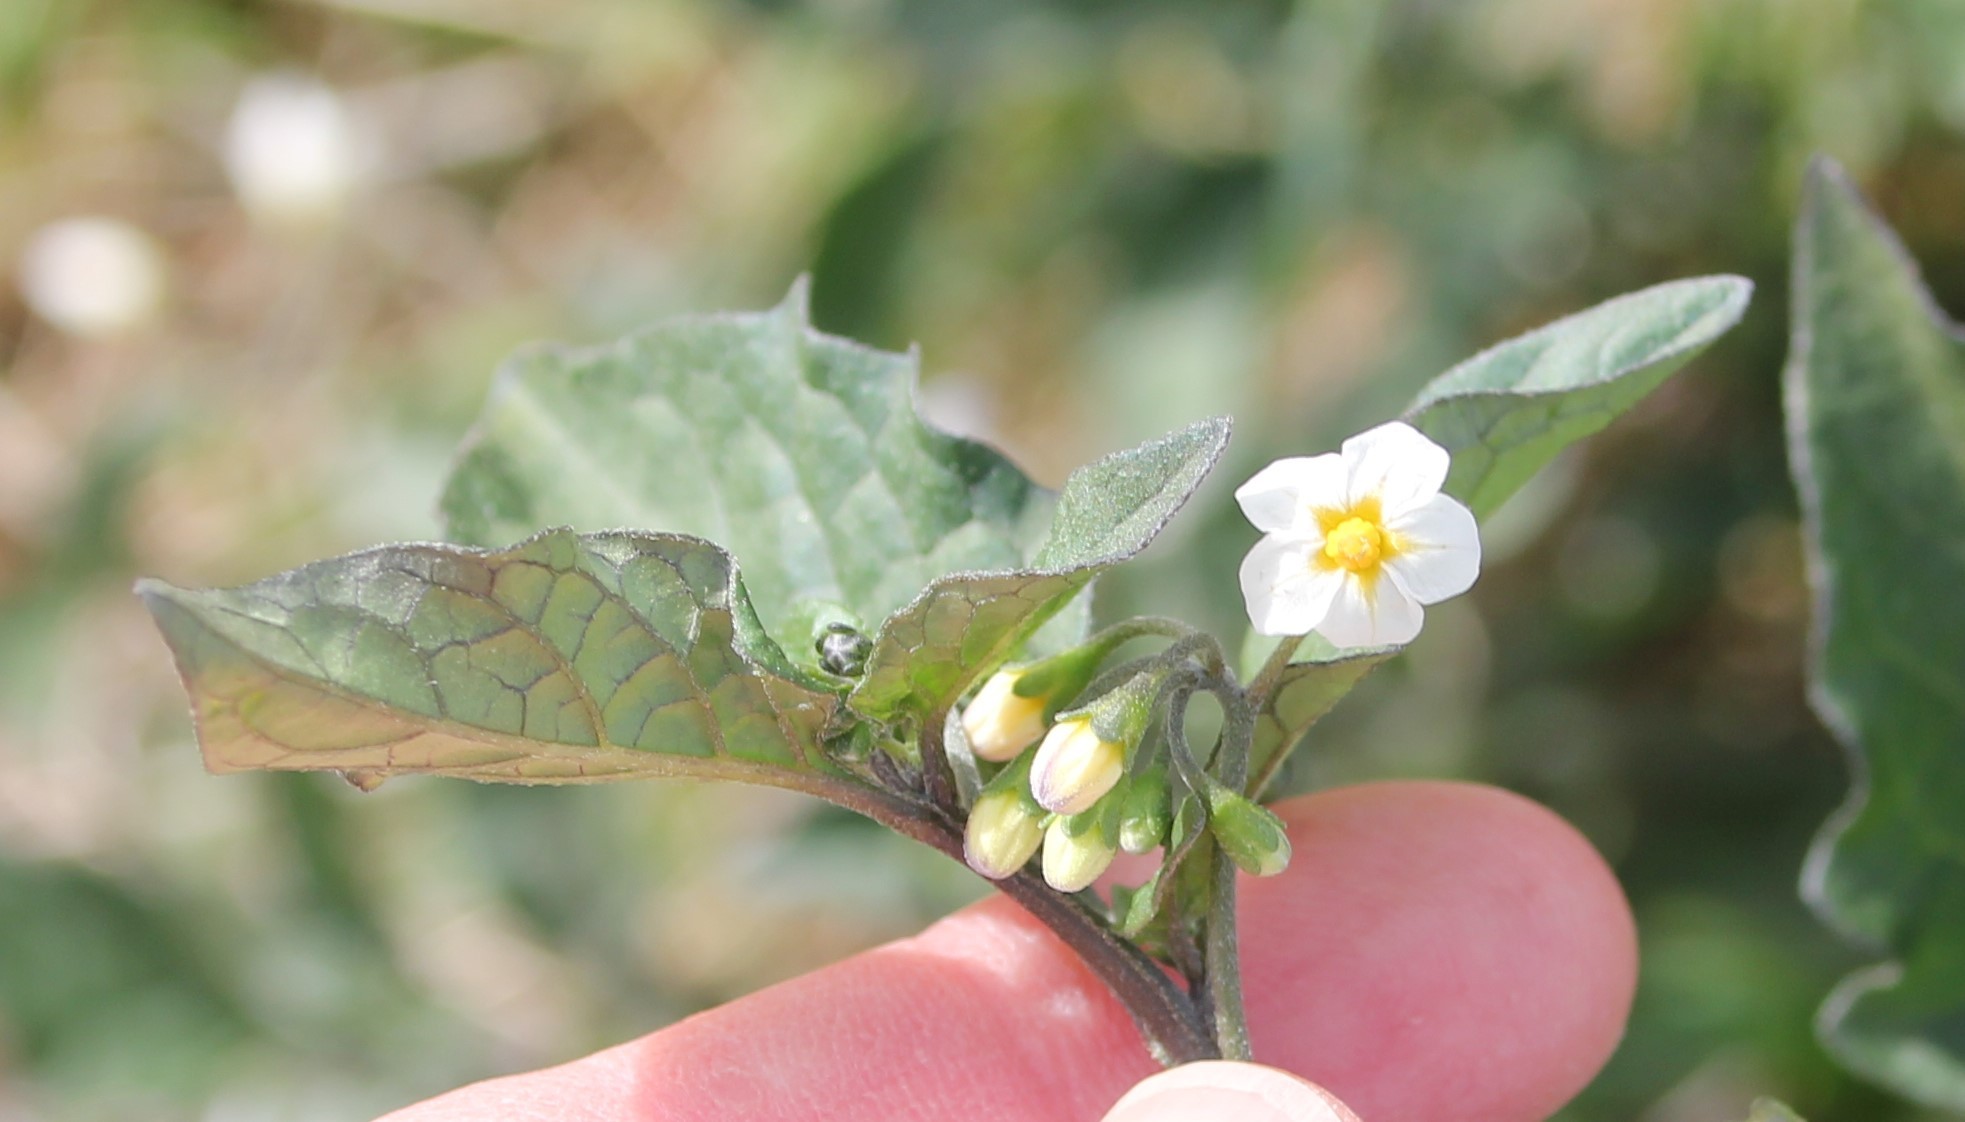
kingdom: Plantae
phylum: Tracheophyta
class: Magnoliopsida
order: Solanales
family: Solanaceae
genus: Solanum
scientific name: Solanum nigrum
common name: Black nightshade
